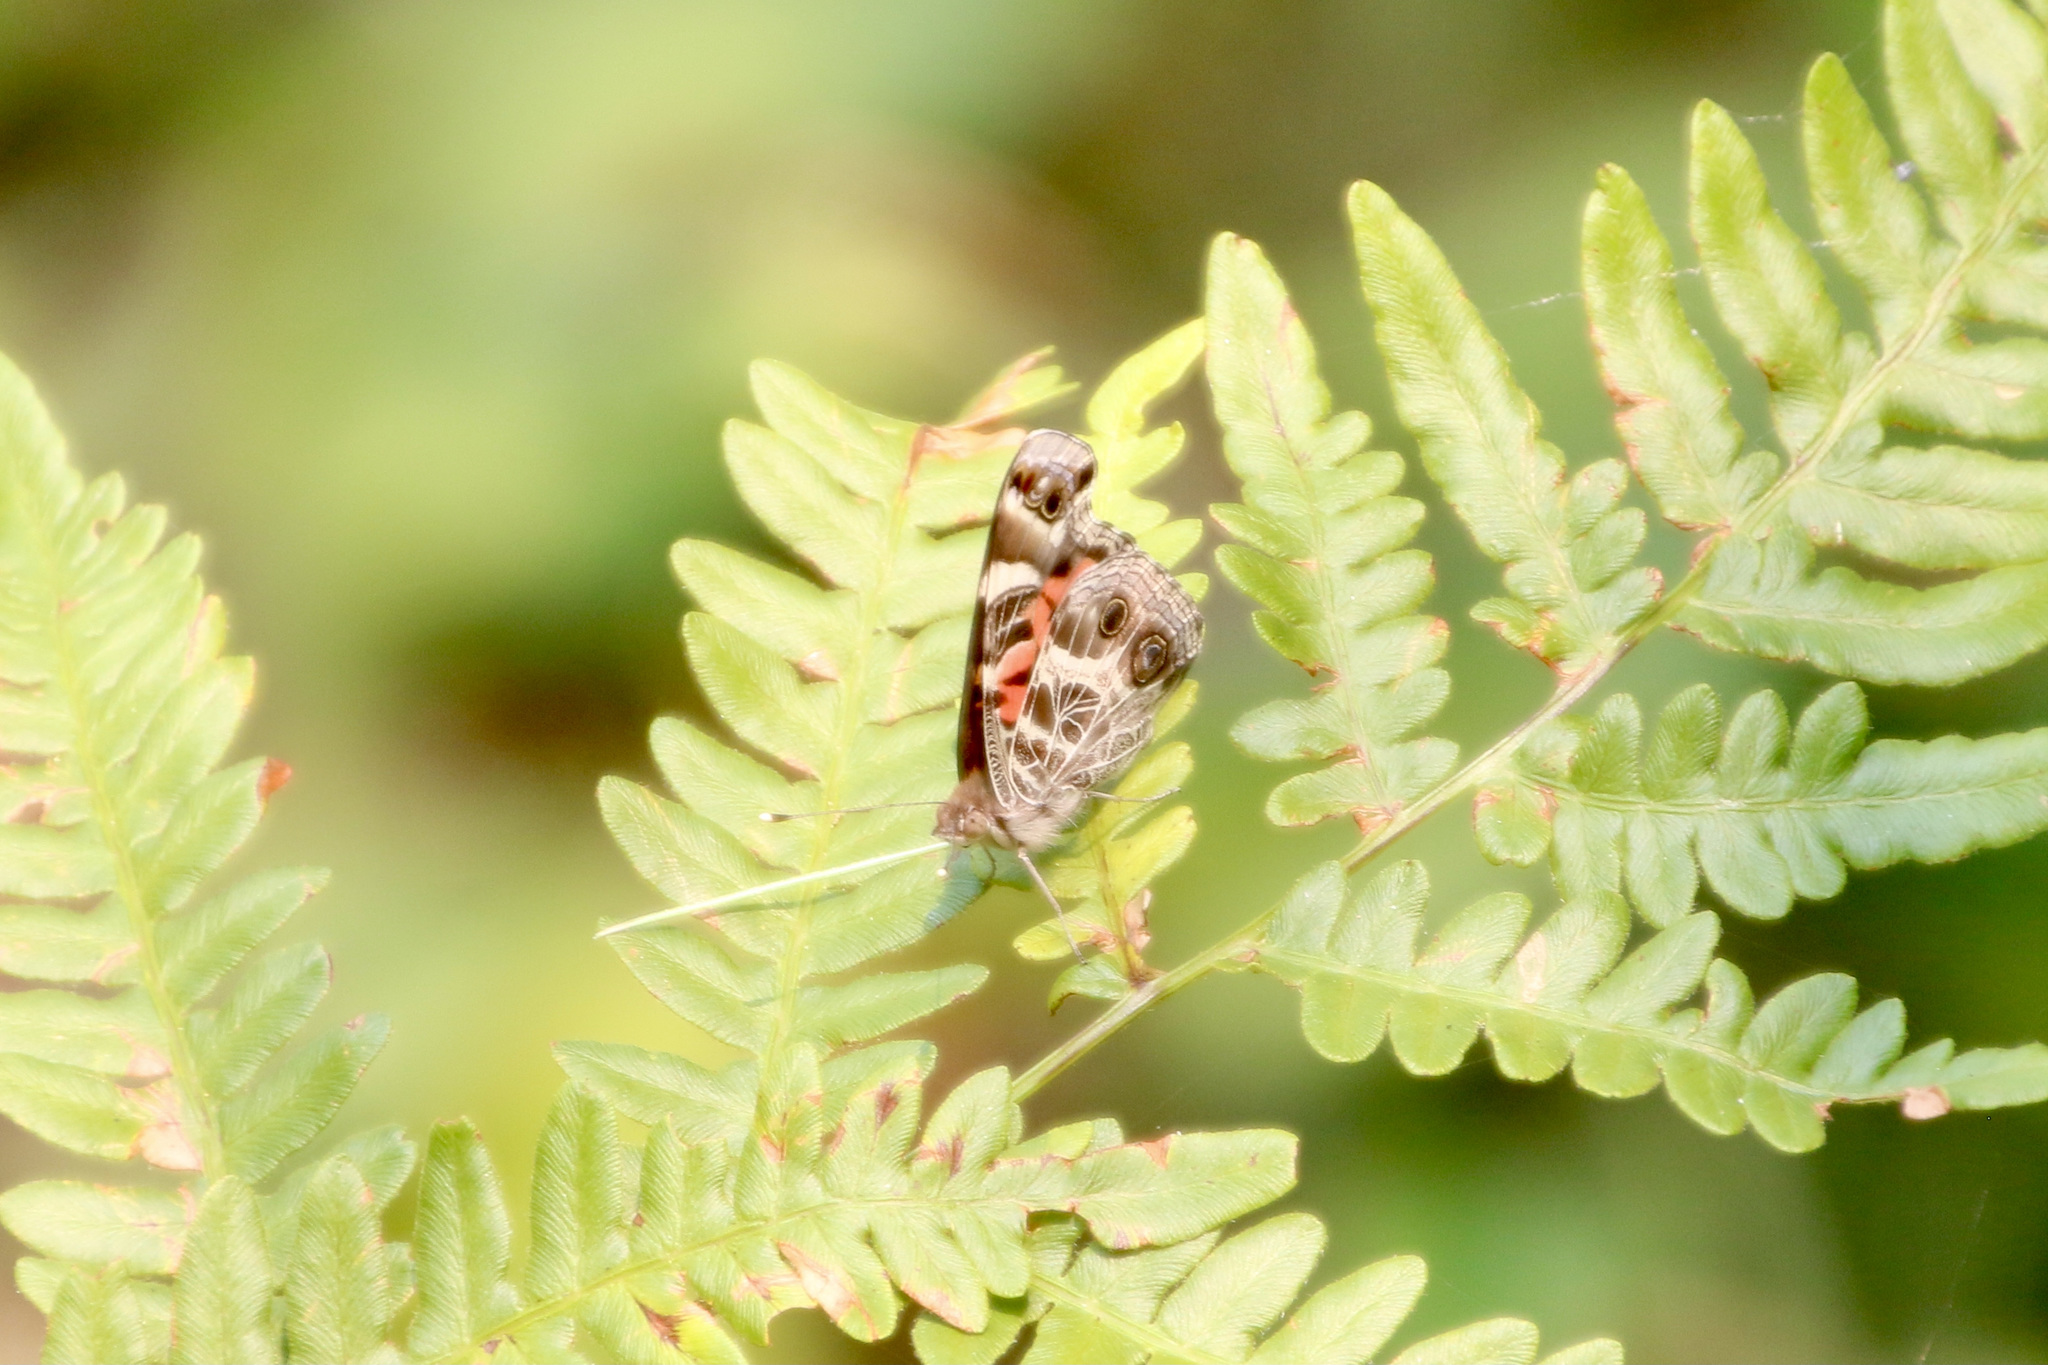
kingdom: Animalia
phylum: Arthropoda
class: Insecta
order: Lepidoptera
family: Nymphalidae
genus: Vanessa
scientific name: Vanessa virginiensis
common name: American lady
